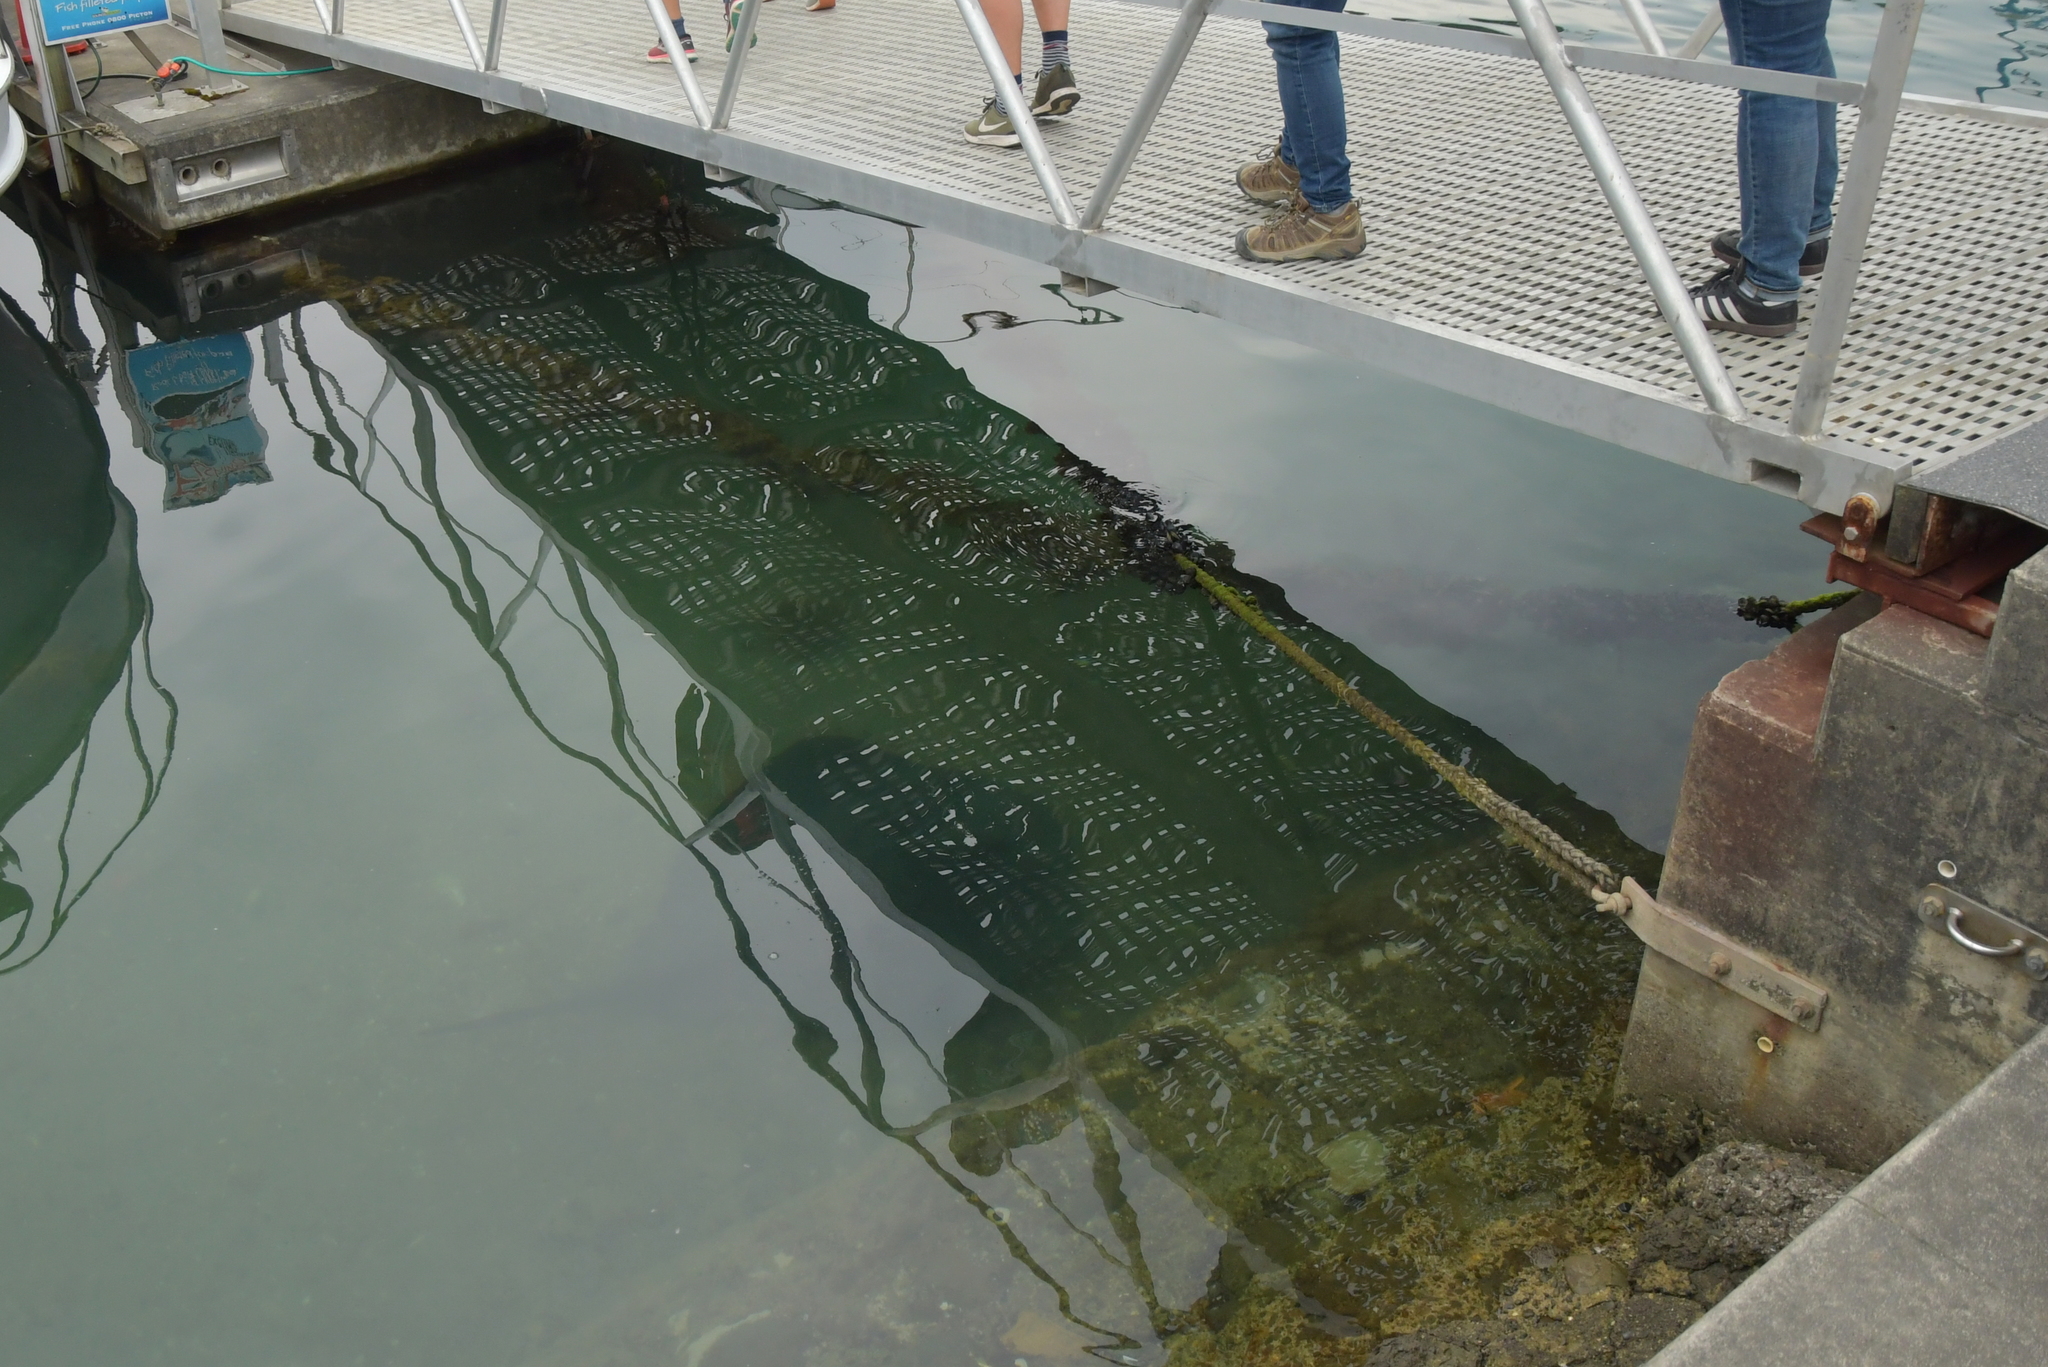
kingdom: Animalia
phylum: Chordata
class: Elasmobranchii
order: Myliobatiformes
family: Dasyatidae
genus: Bathytoshia
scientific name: Bathytoshia brevicaudata
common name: Short-tail stingray
